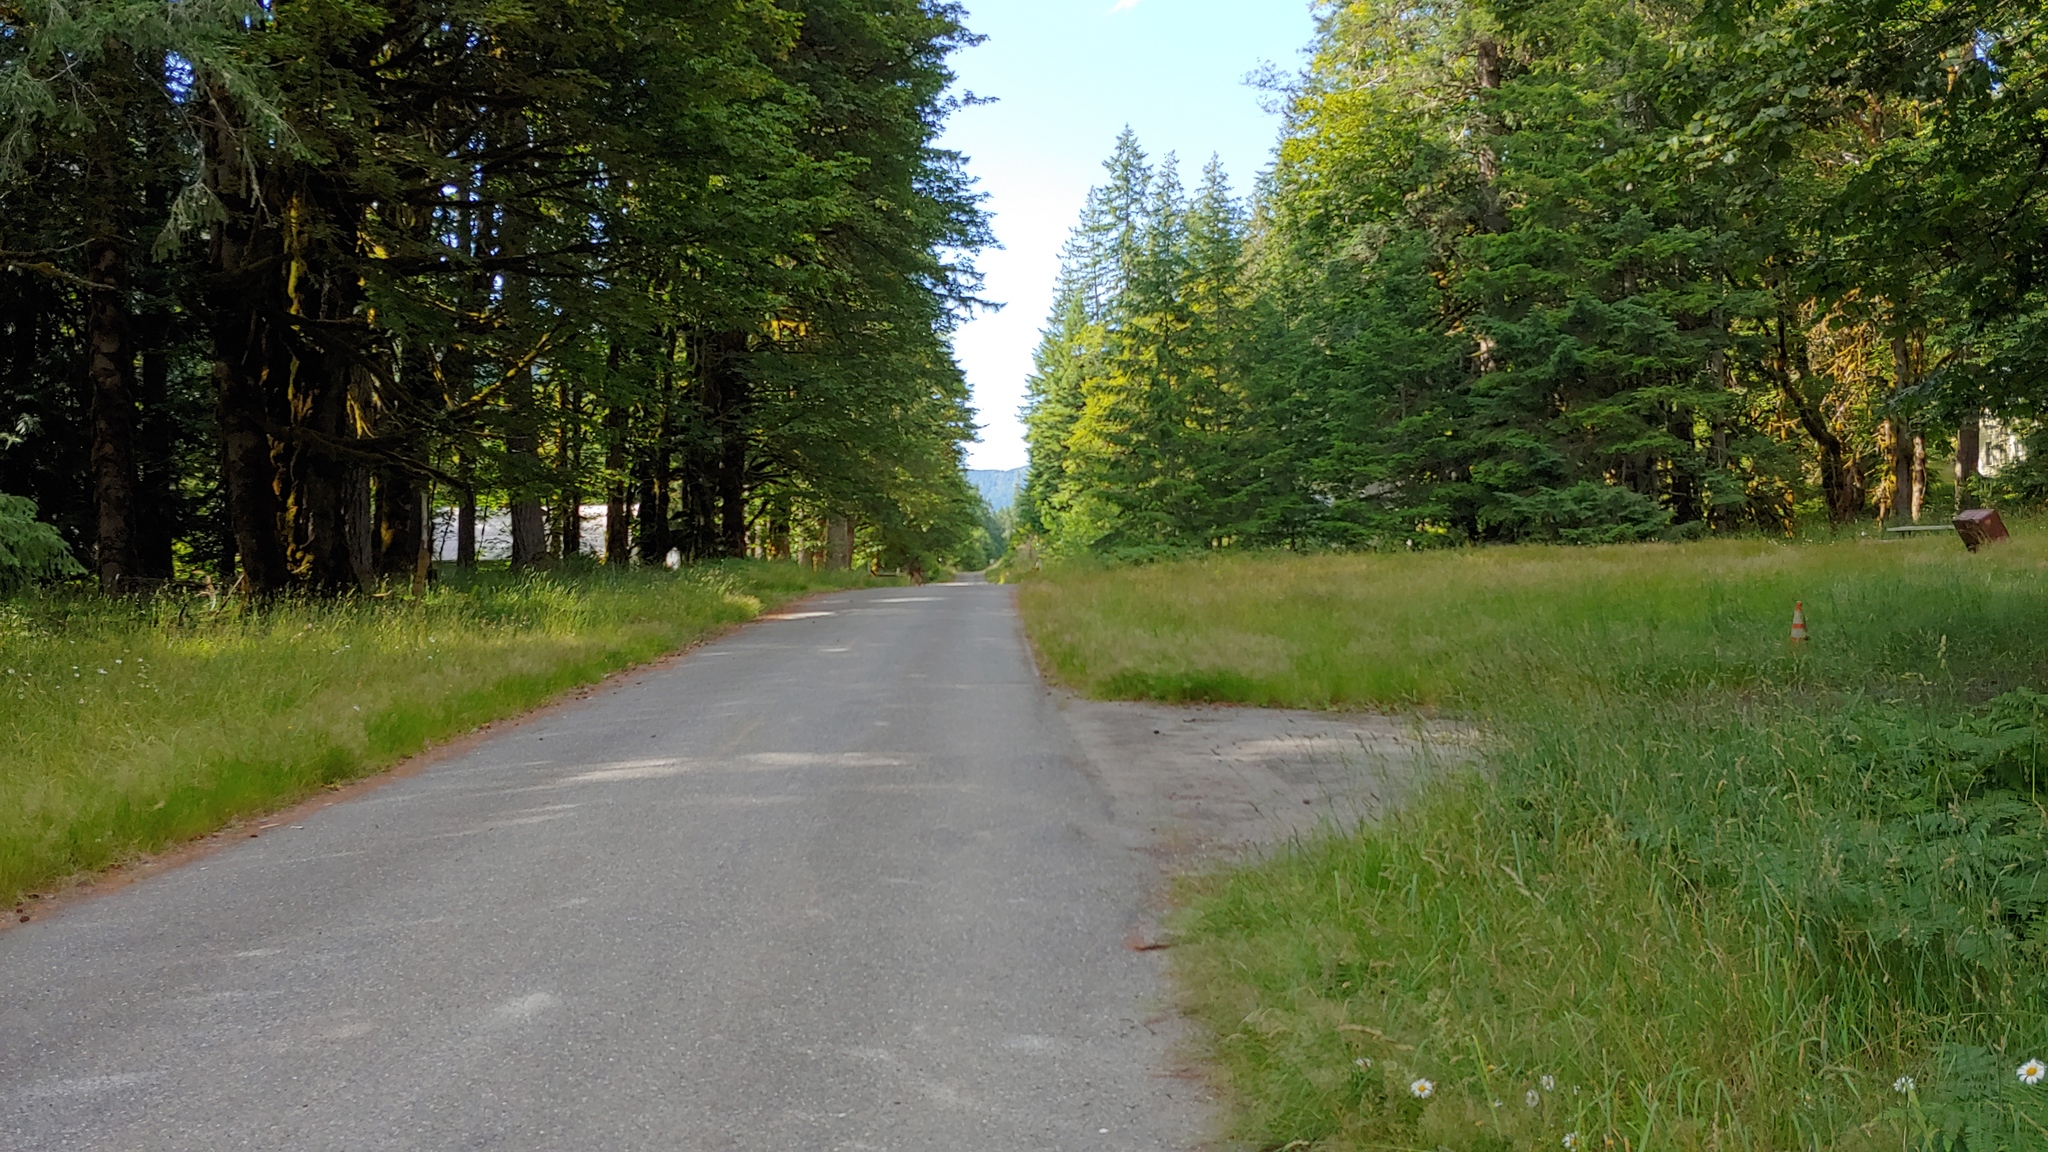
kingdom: Animalia
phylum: Chordata
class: Mammalia
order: Artiodactyla
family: Cervidae
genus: Odocoileus
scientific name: Odocoileus hemionus
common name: Mule deer
